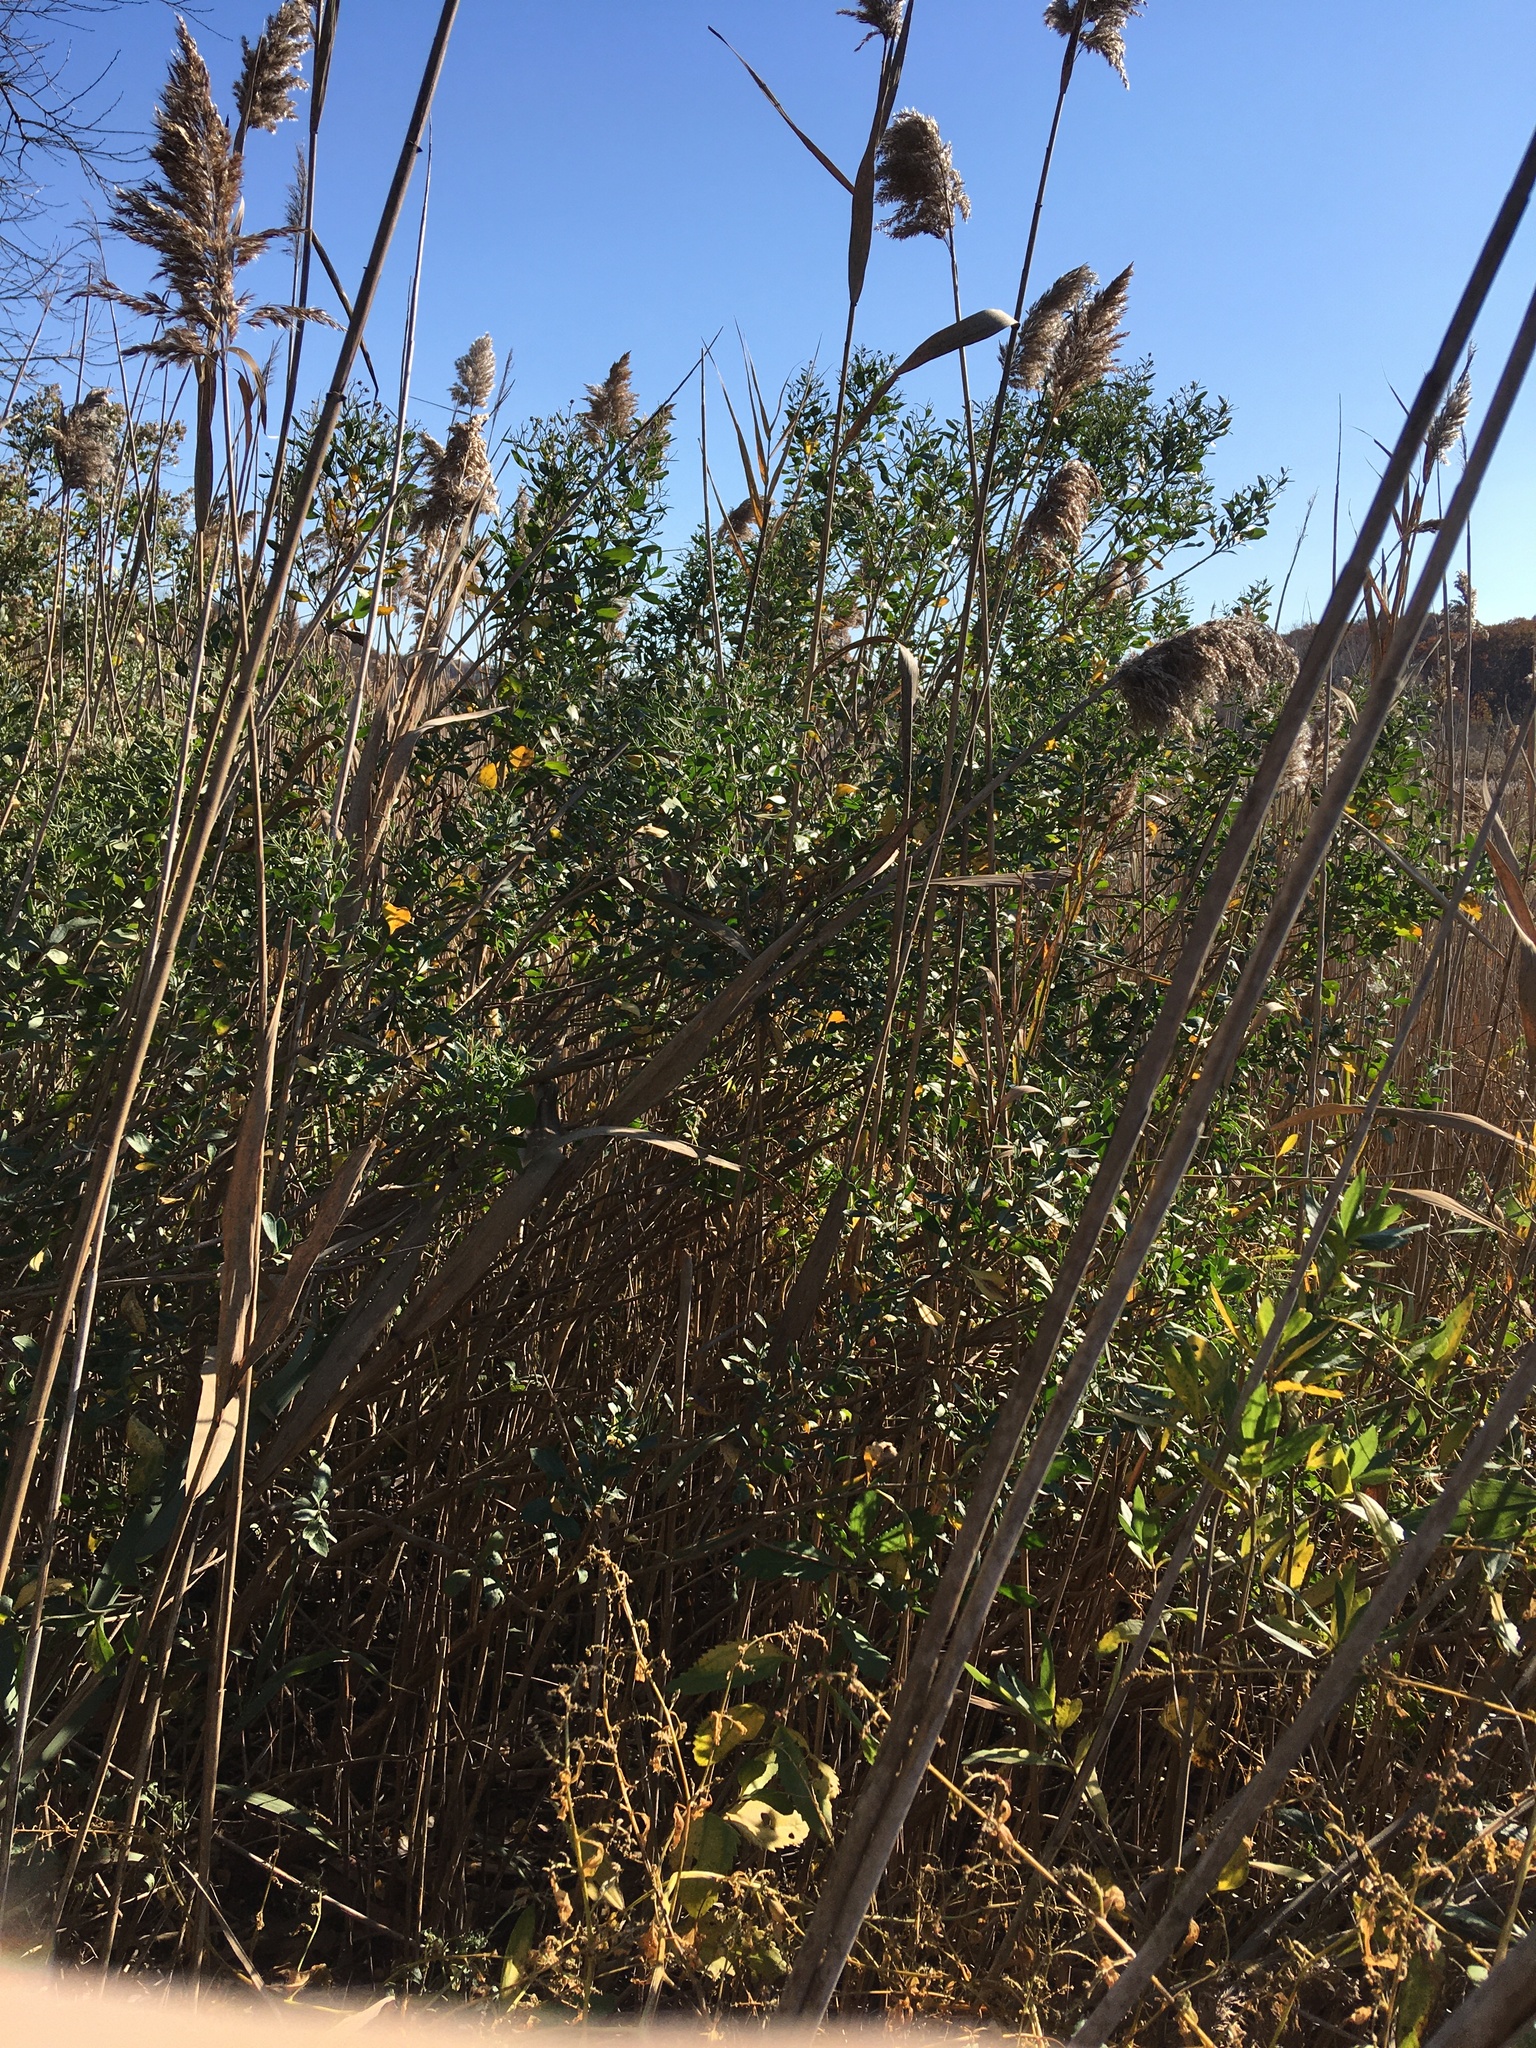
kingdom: Plantae
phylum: Tracheophyta
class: Magnoliopsida
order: Asterales
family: Asteraceae
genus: Baccharis
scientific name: Baccharis halimifolia
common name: Eastern baccharis
